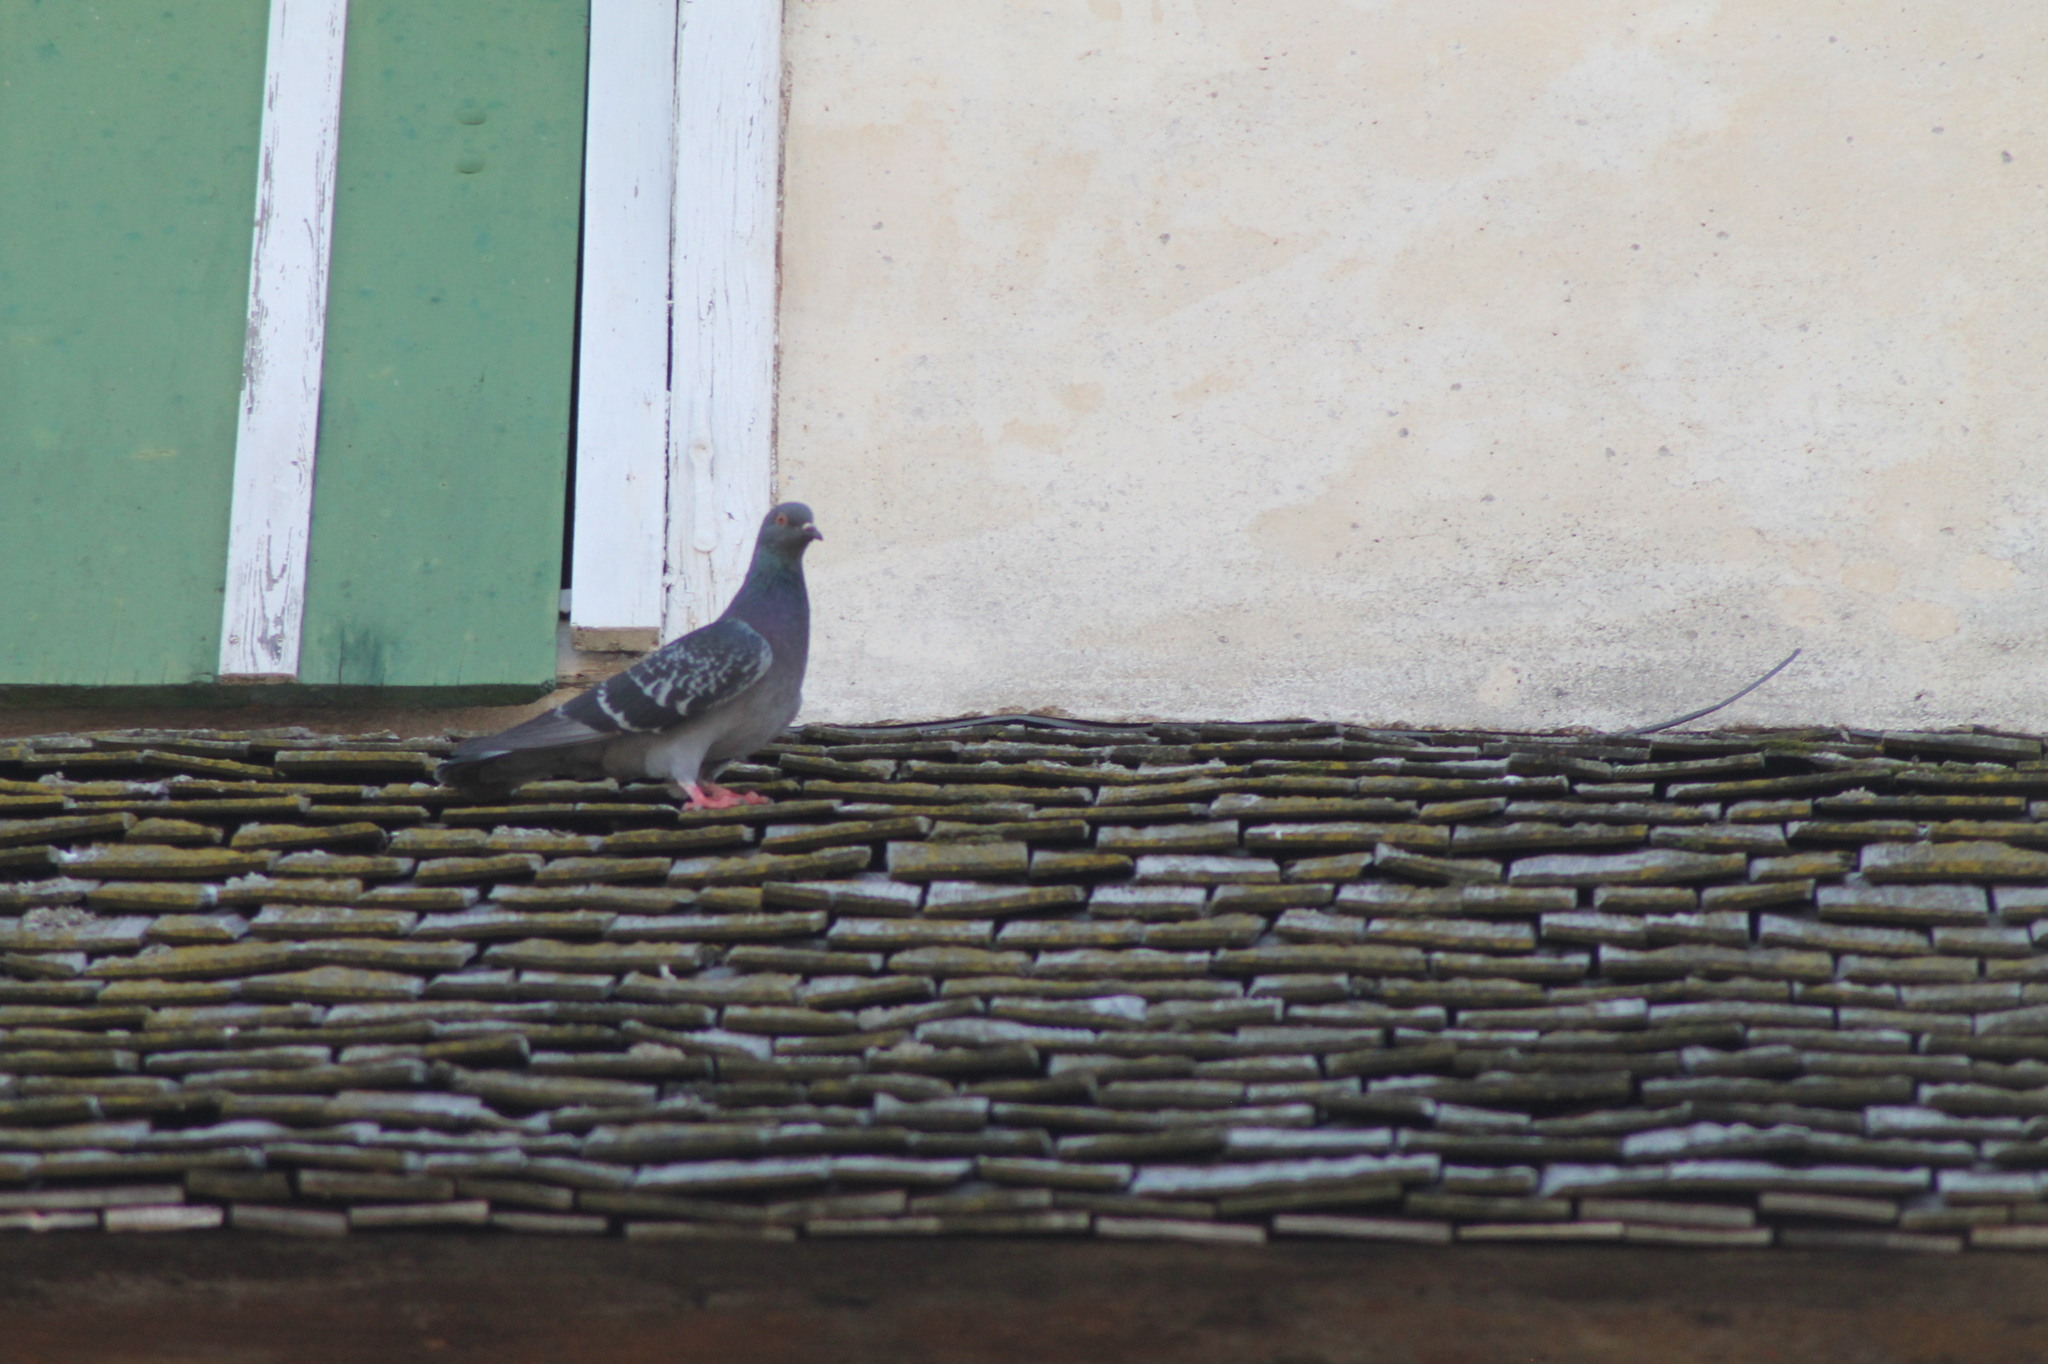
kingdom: Animalia
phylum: Chordata
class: Aves
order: Columbiformes
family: Columbidae
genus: Columba
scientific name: Columba livia
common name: Rock pigeon
